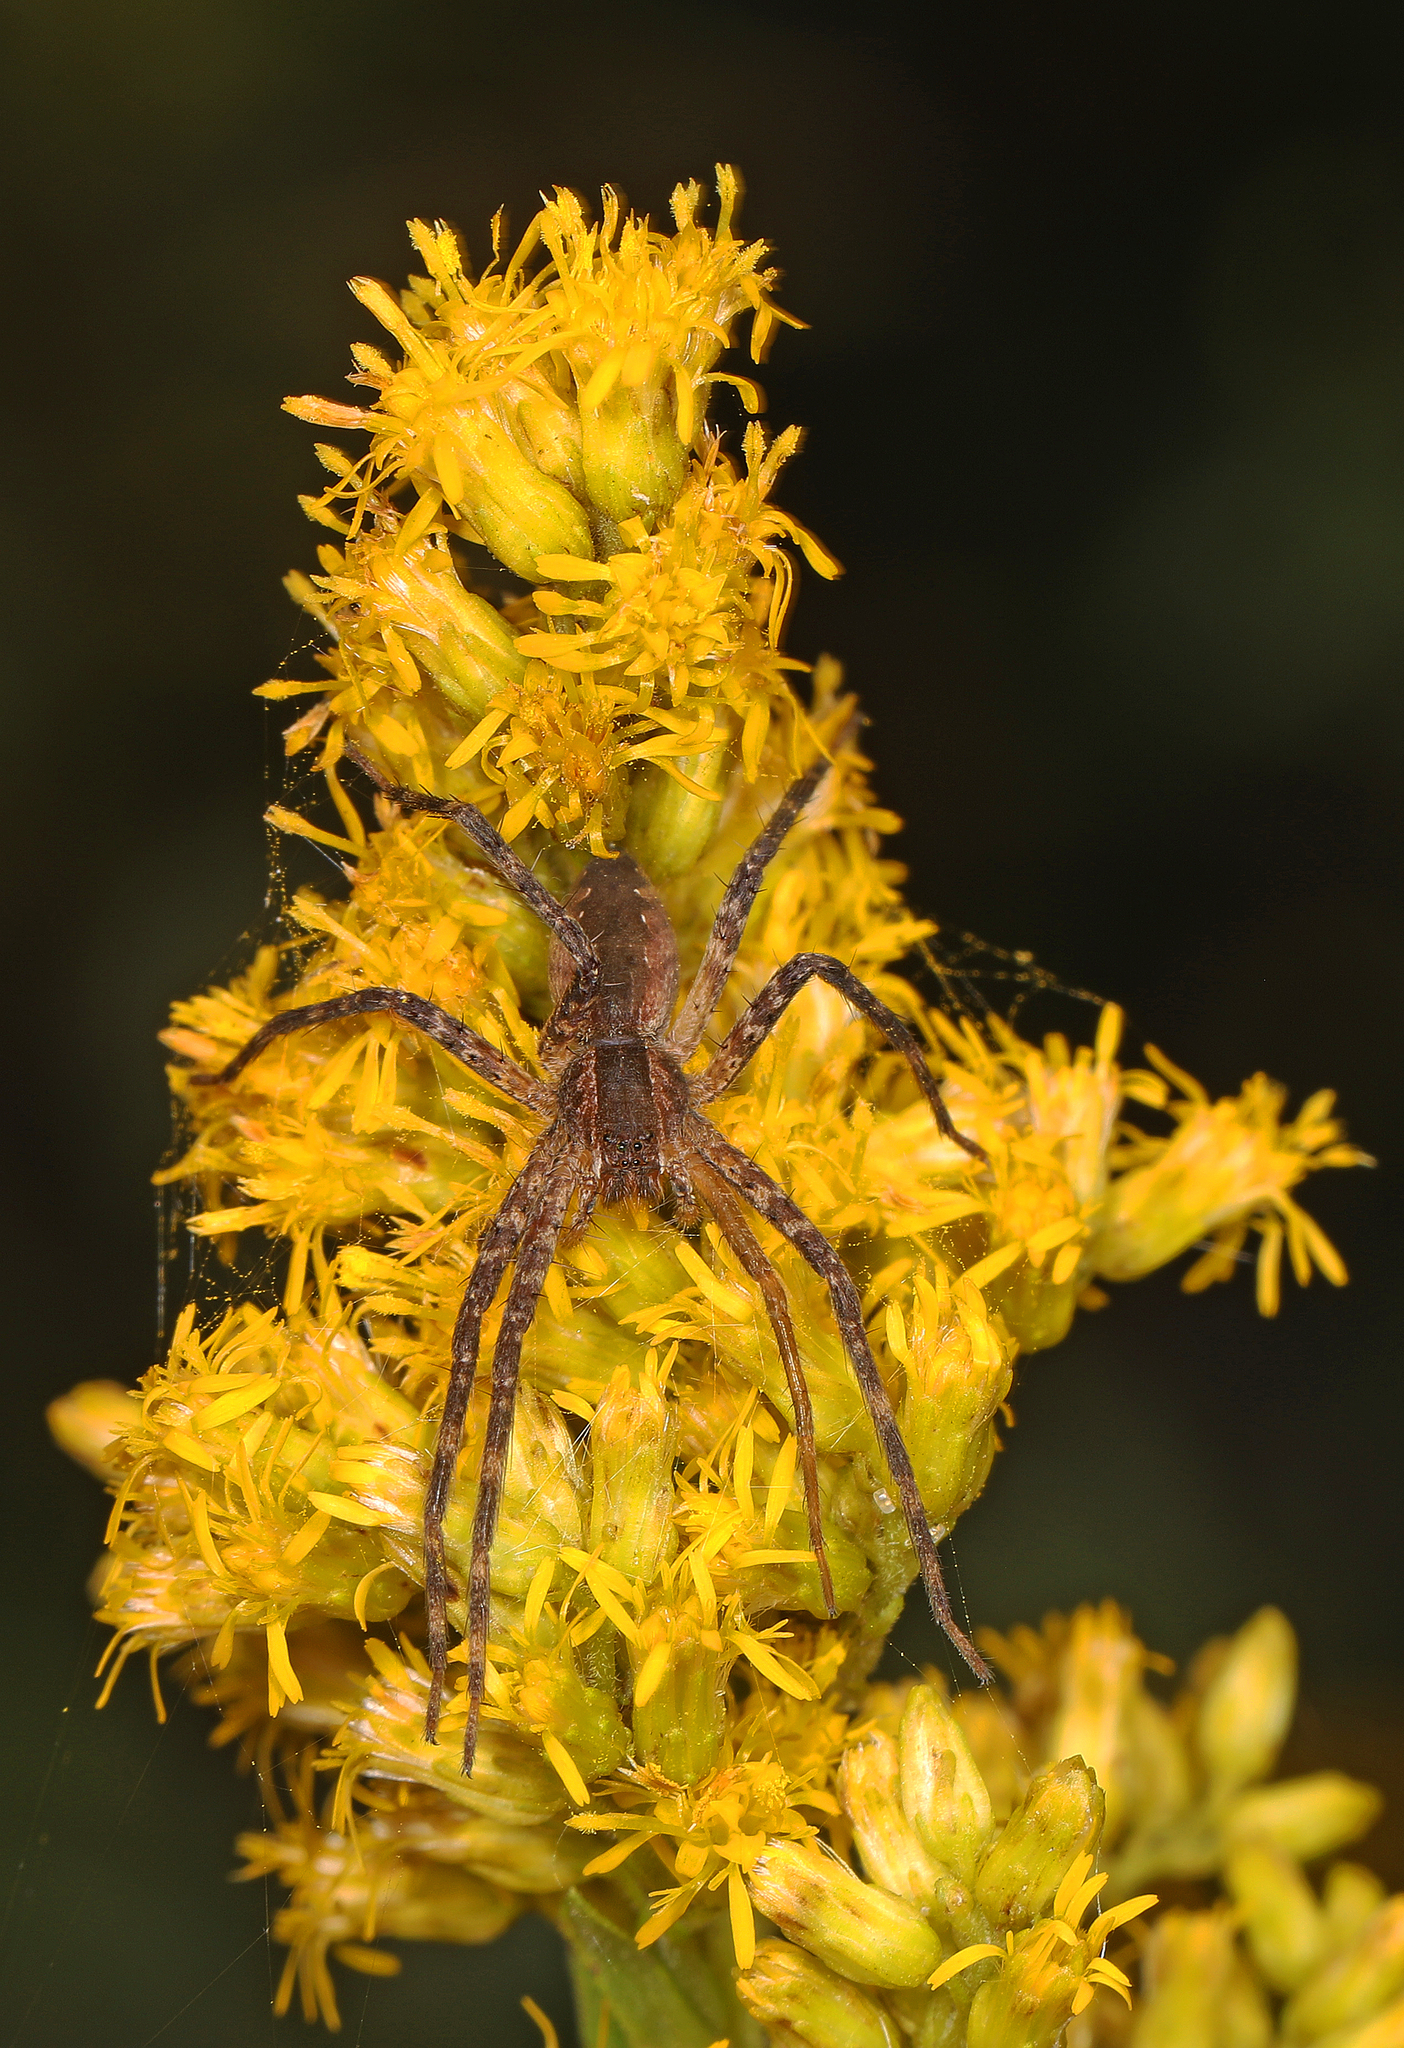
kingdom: Animalia
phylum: Arthropoda
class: Arachnida
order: Araneae
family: Pisauridae
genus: Pisaurina
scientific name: Pisaurina mira
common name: American nursery web spider
